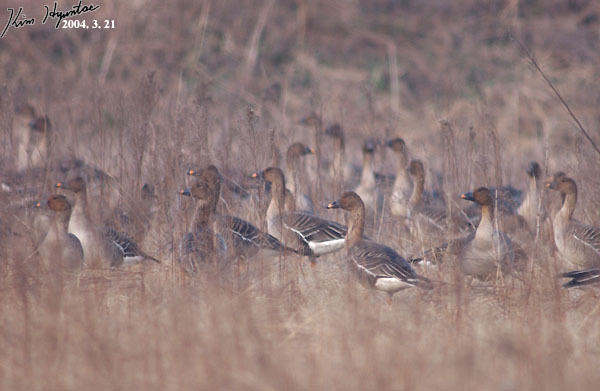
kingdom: Animalia
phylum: Chordata
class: Aves
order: Anseriformes
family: Anatidae
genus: Anser
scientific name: Anser fabalis
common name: Bean goose
